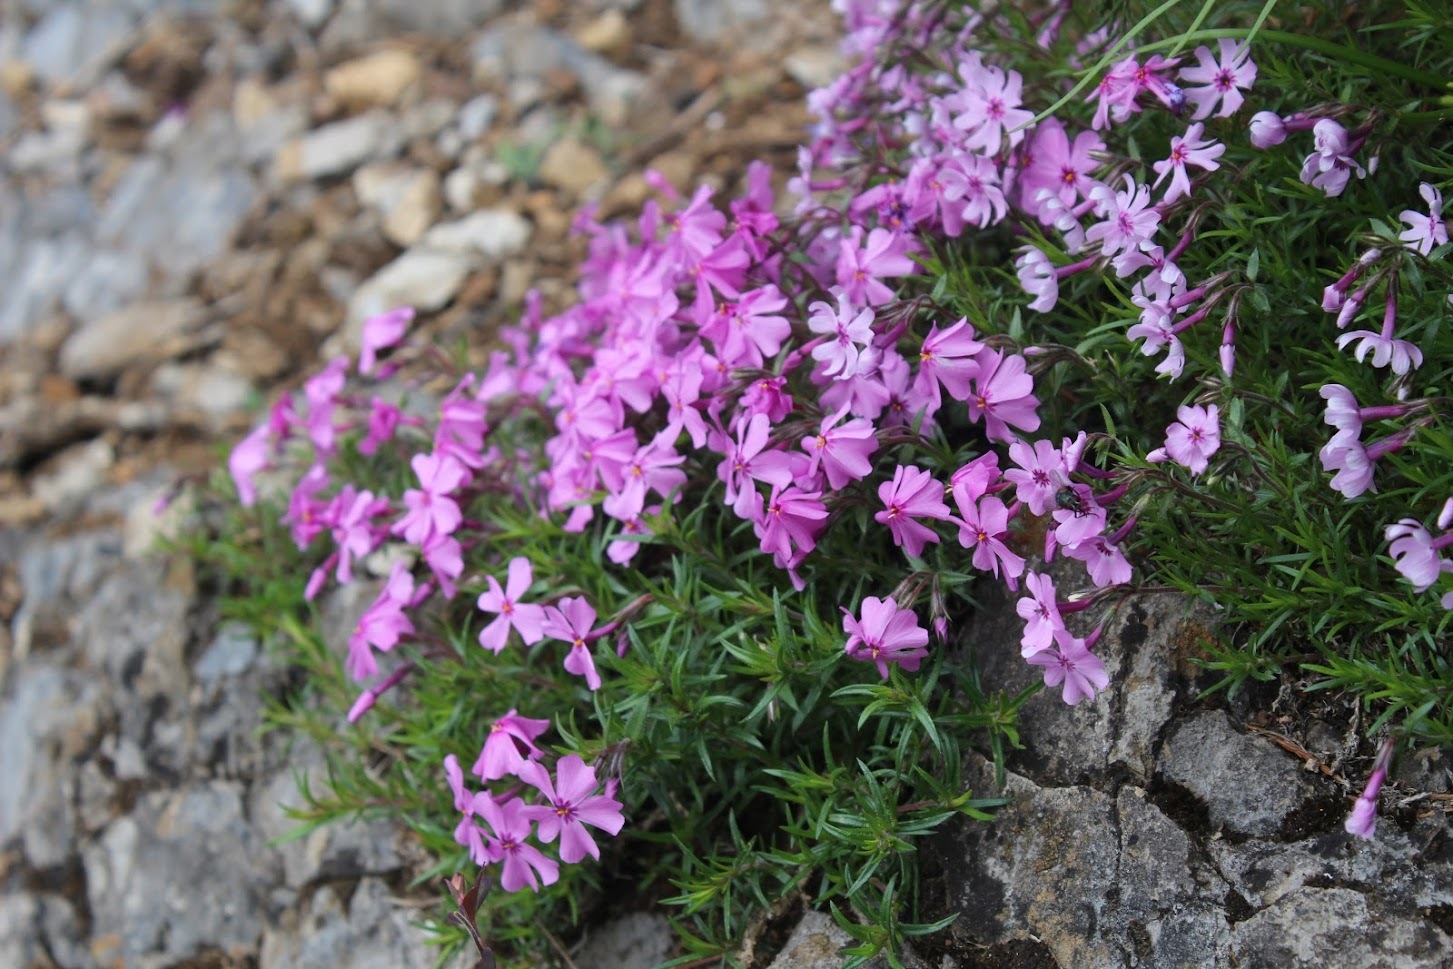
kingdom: Plantae
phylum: Tracheophyta
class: Magnoliopsida
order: Ericales
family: Polemoniaceae
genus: Phlox
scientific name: Phlox subulata
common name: Moss phlox
